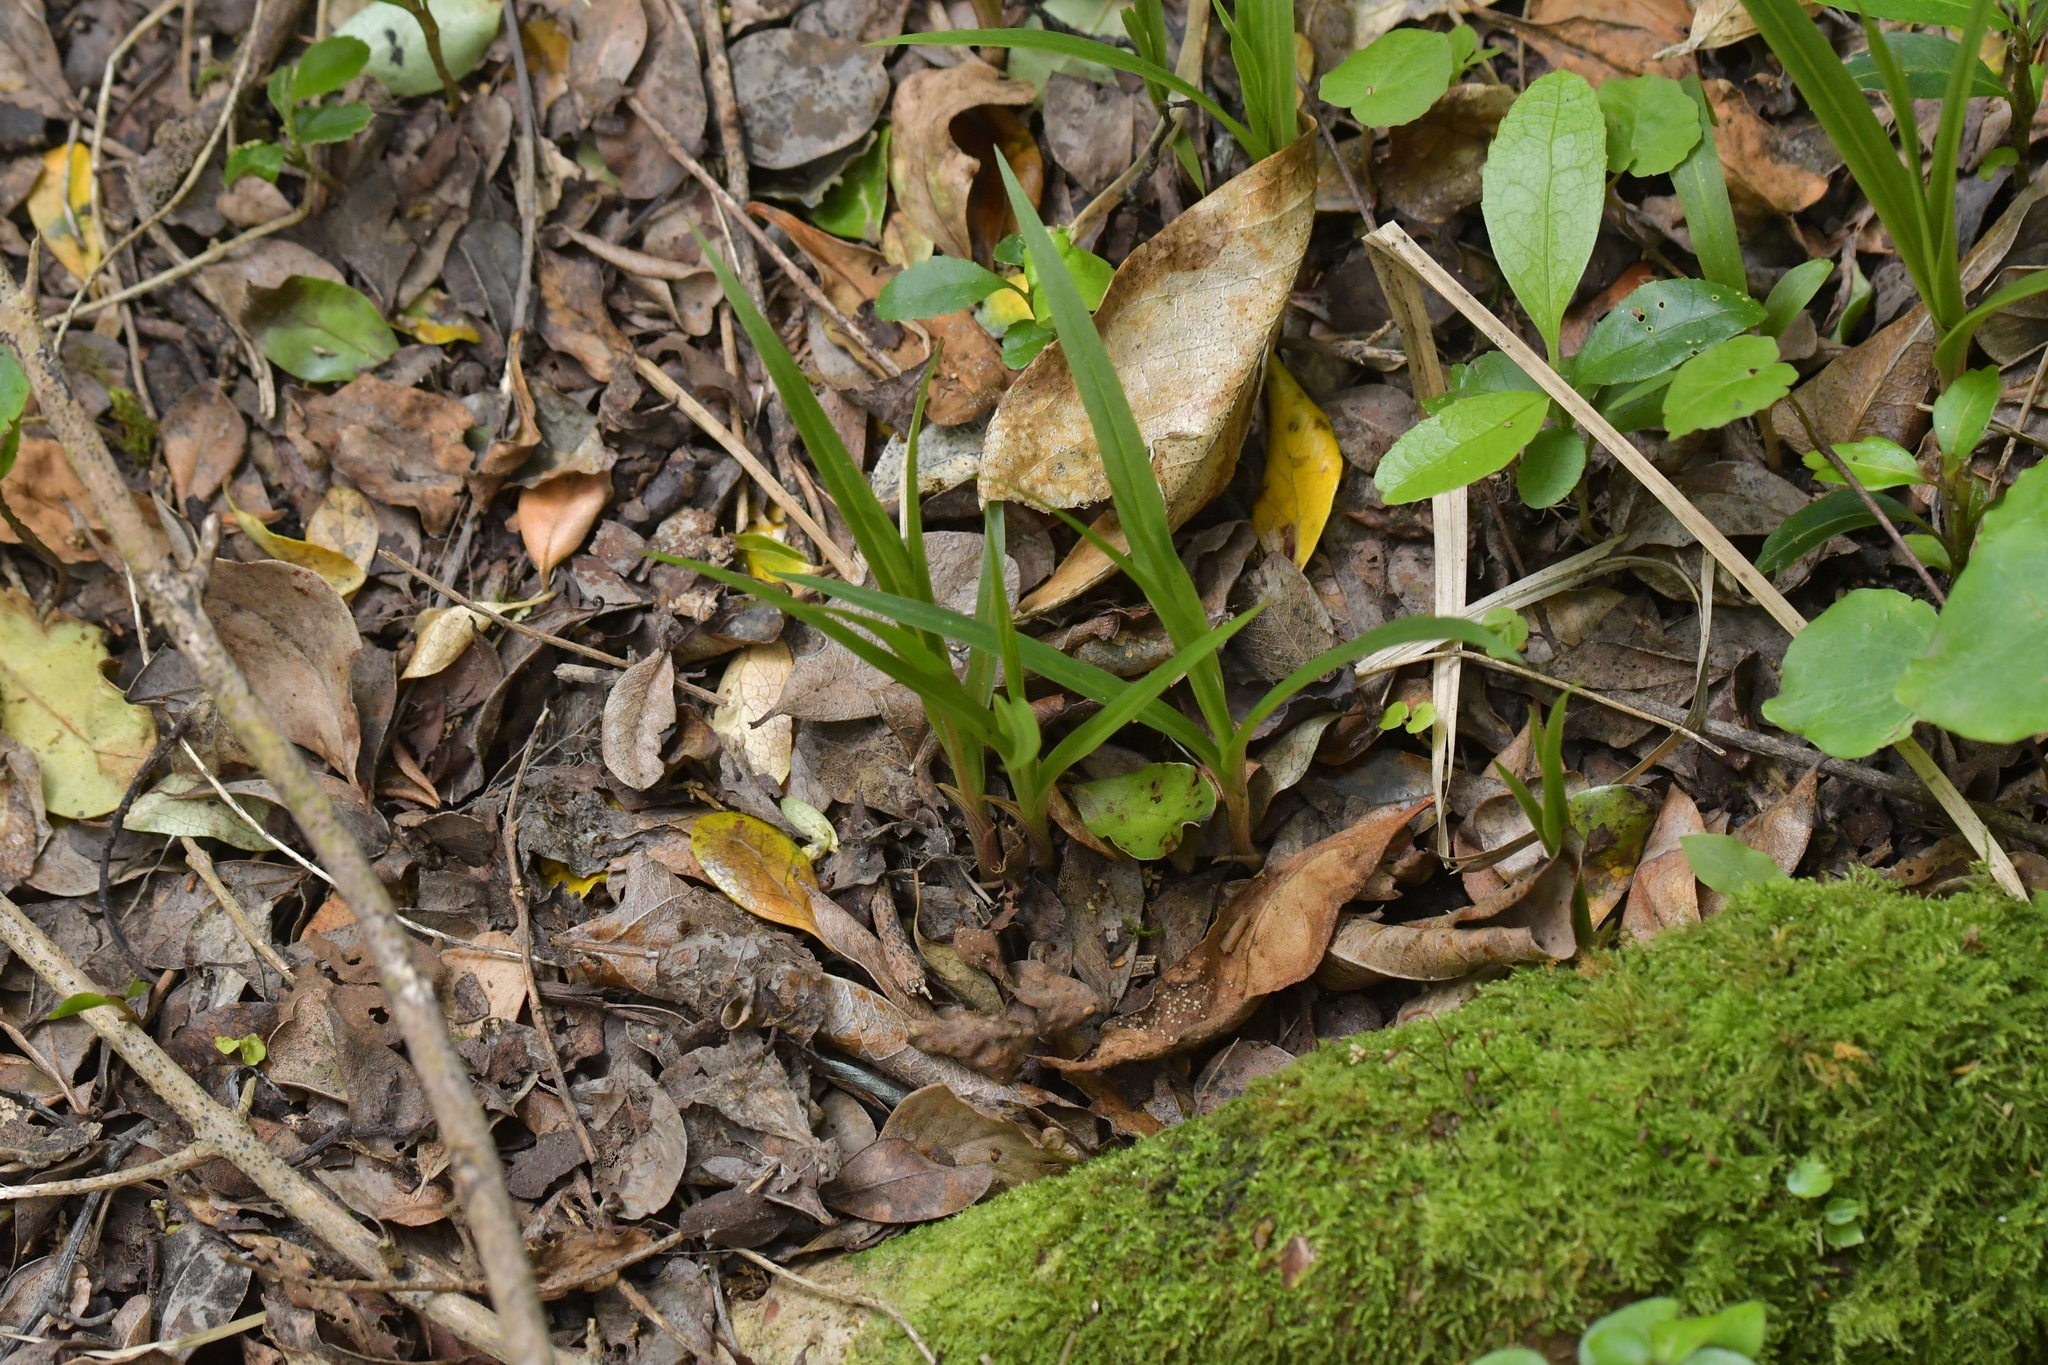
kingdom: Plantae
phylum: Tracheophyta
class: Liliopsida
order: Asparagales
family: Orchidaceae
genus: Pterostylis
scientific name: Pterostylis banksii
